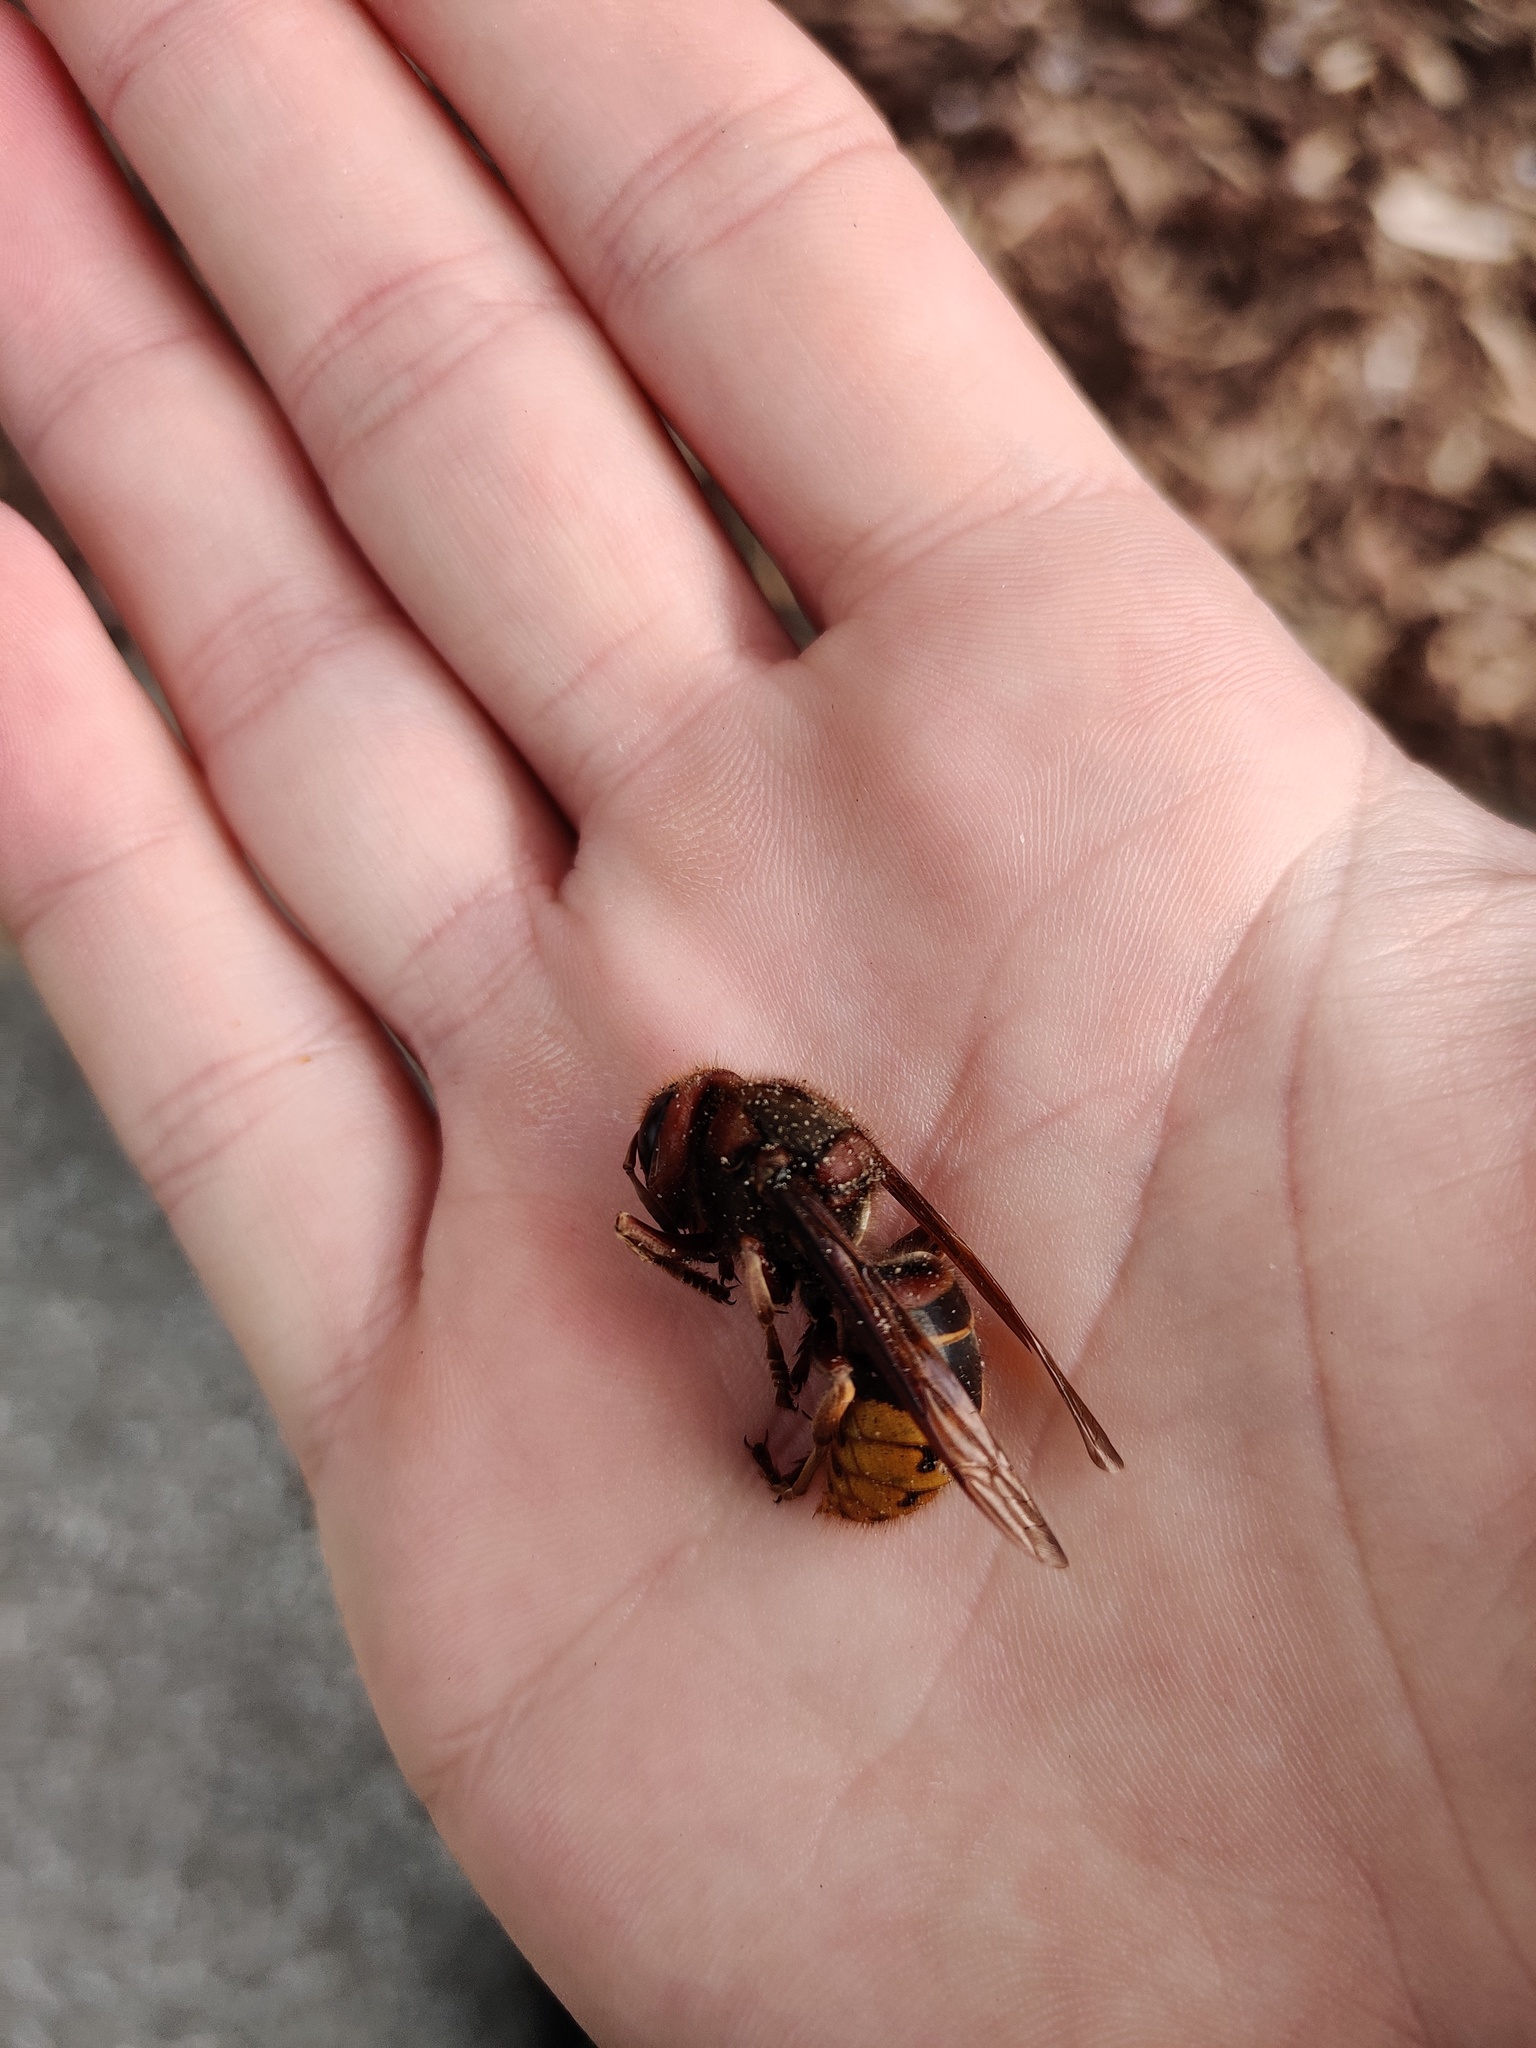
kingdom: Animalia
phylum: Arthropoda
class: Insecta
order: Hymenoptera
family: Vespidae
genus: Vespa
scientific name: Vespa crabro
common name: Hornet
